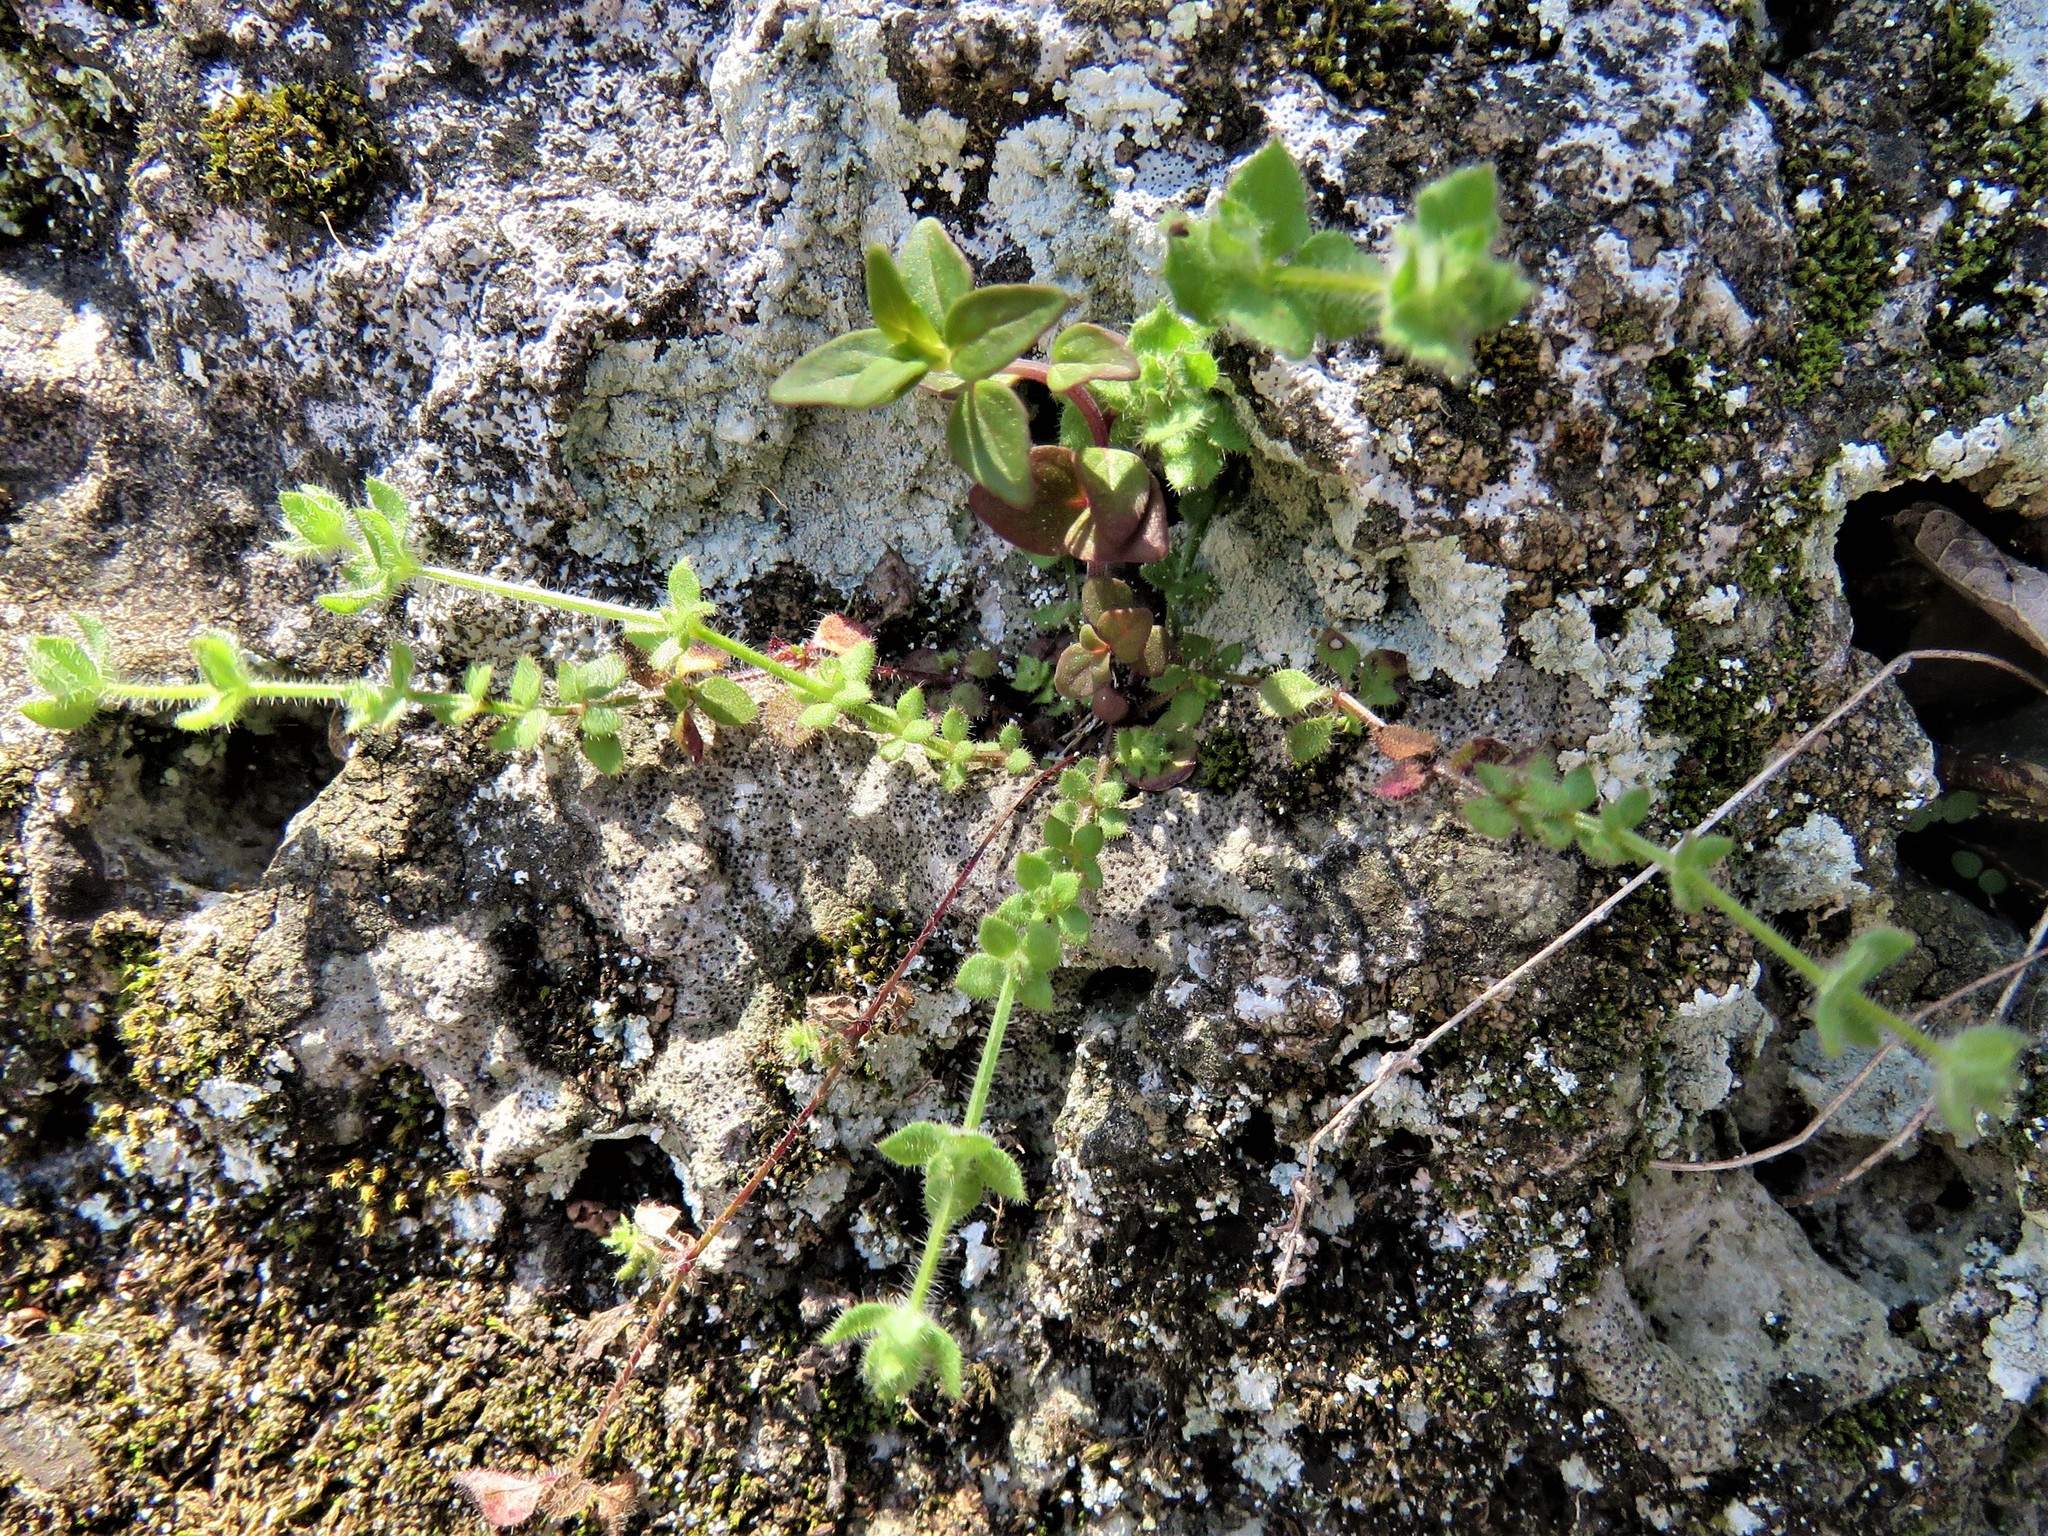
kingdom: Plantae
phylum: Tracheophyta
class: Magnoliopsida
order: Gentianales
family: Rubiaceae
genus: Galium
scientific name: Galium virgatum
